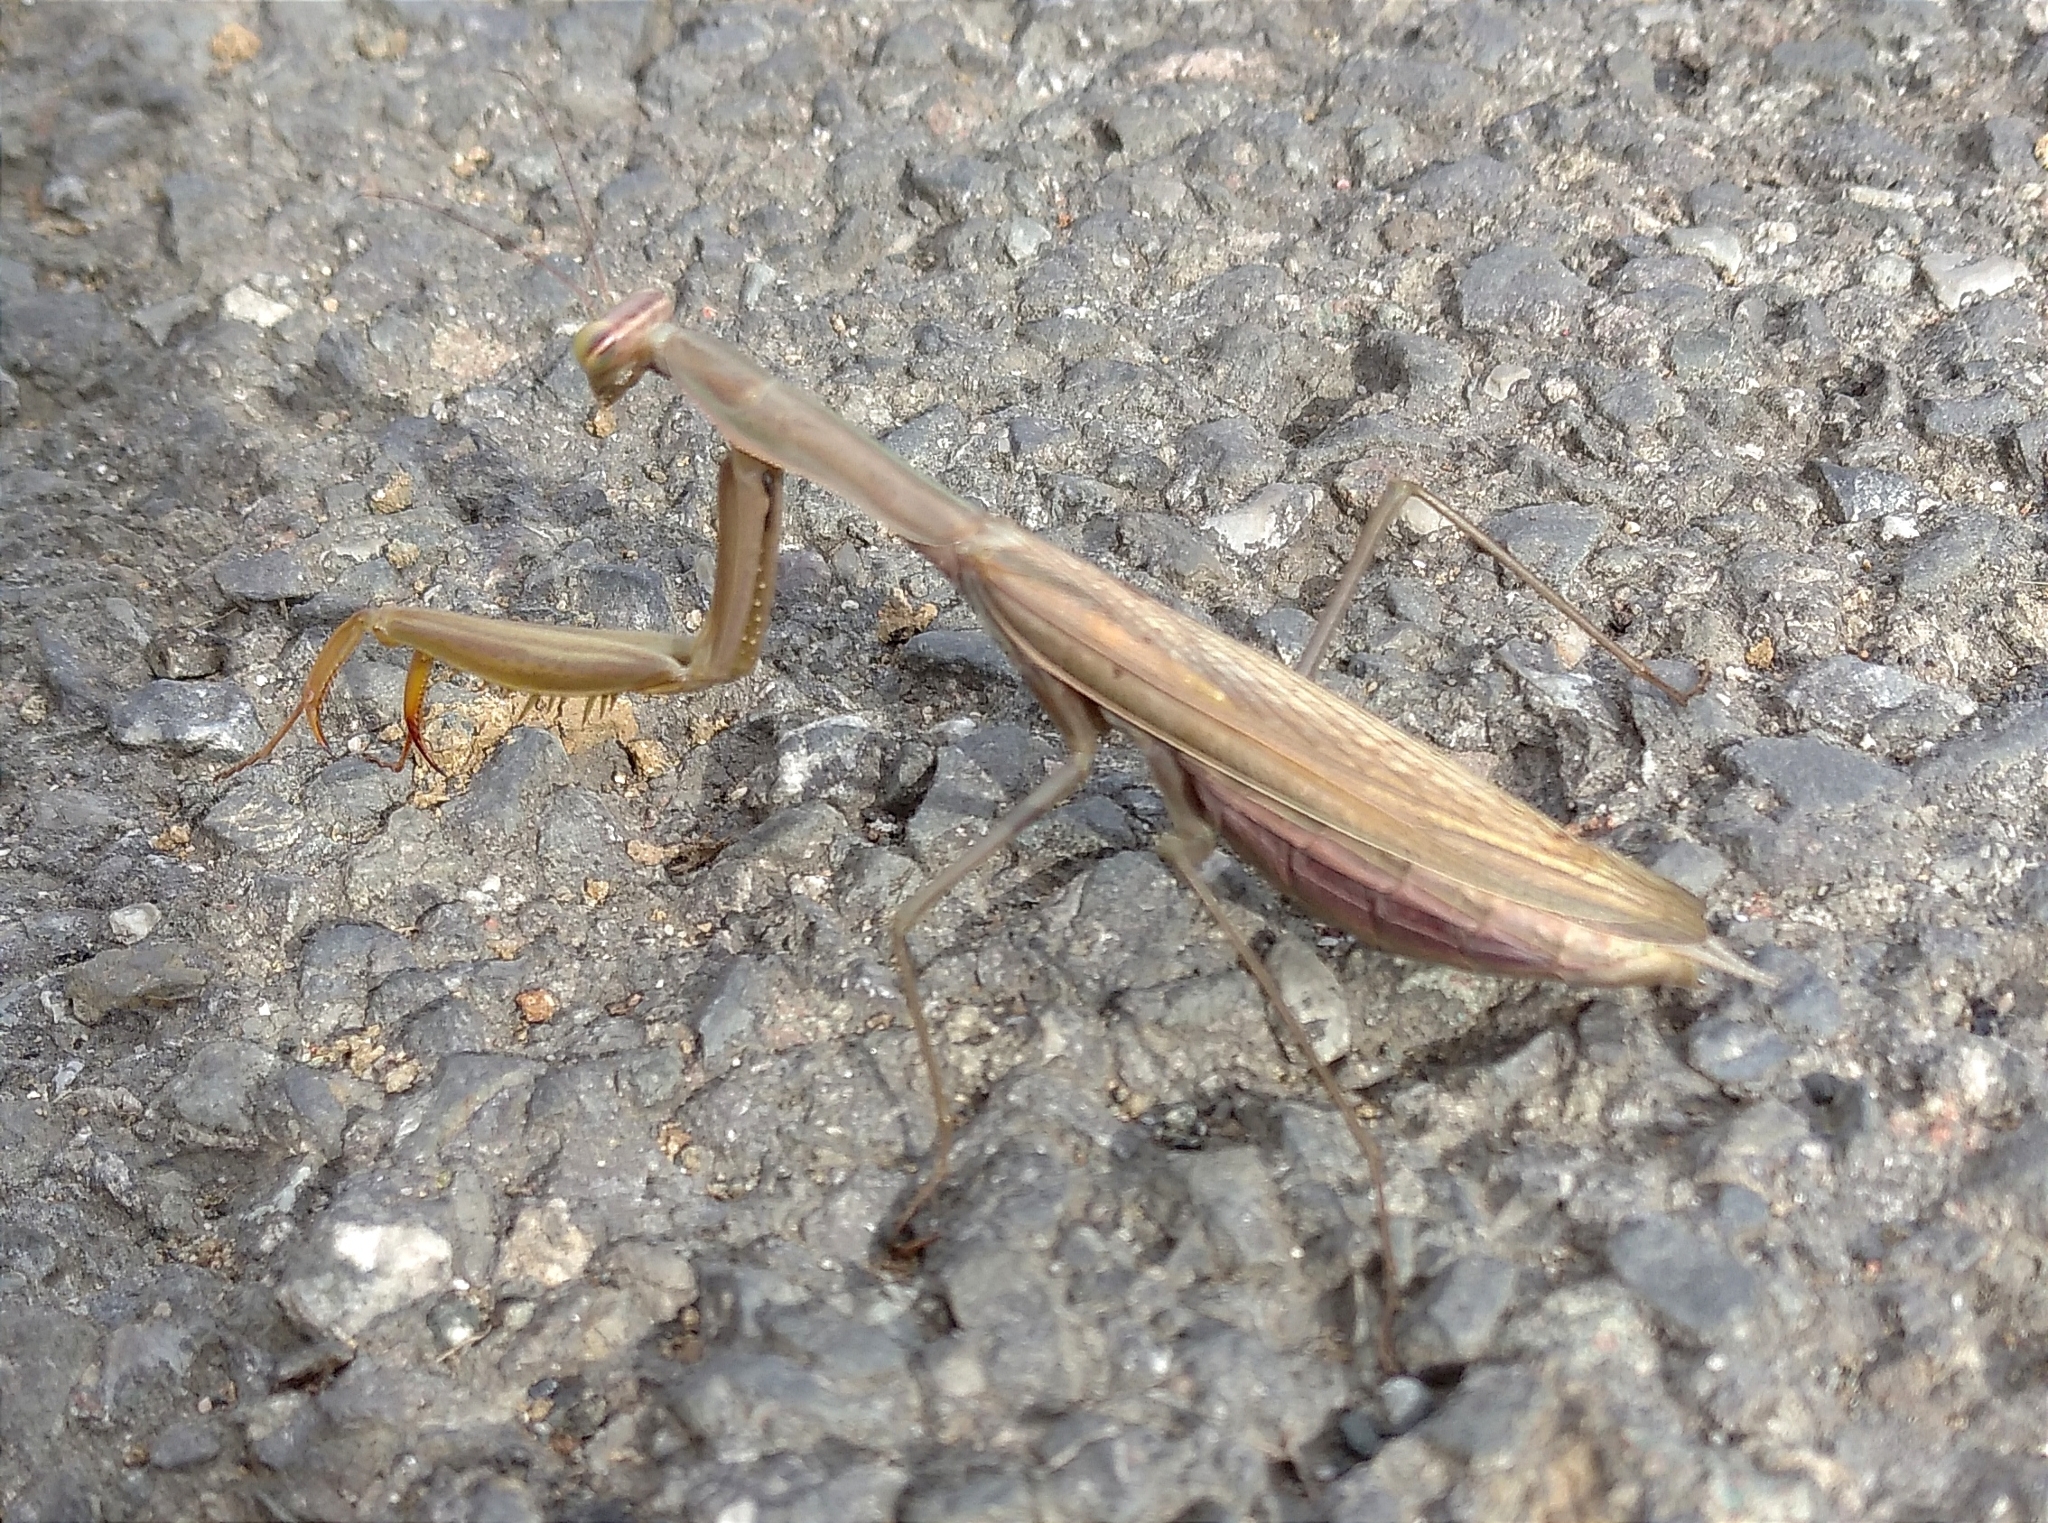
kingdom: Animalia
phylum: Arthropoda
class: Insecta
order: Mantodea
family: Mantidae
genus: Mantis
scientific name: Mantis religiosa
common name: Praying mantis
